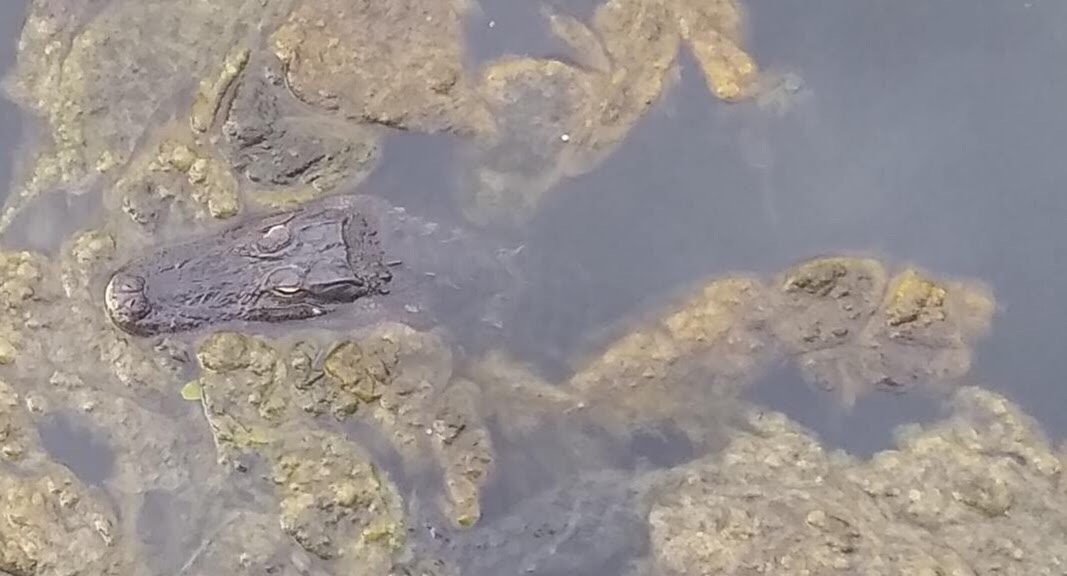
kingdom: Animalia
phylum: Chordata
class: Crocodylia
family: Alligatoridae
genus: Alligator
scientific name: Alligator mississippiensis
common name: American alligator
